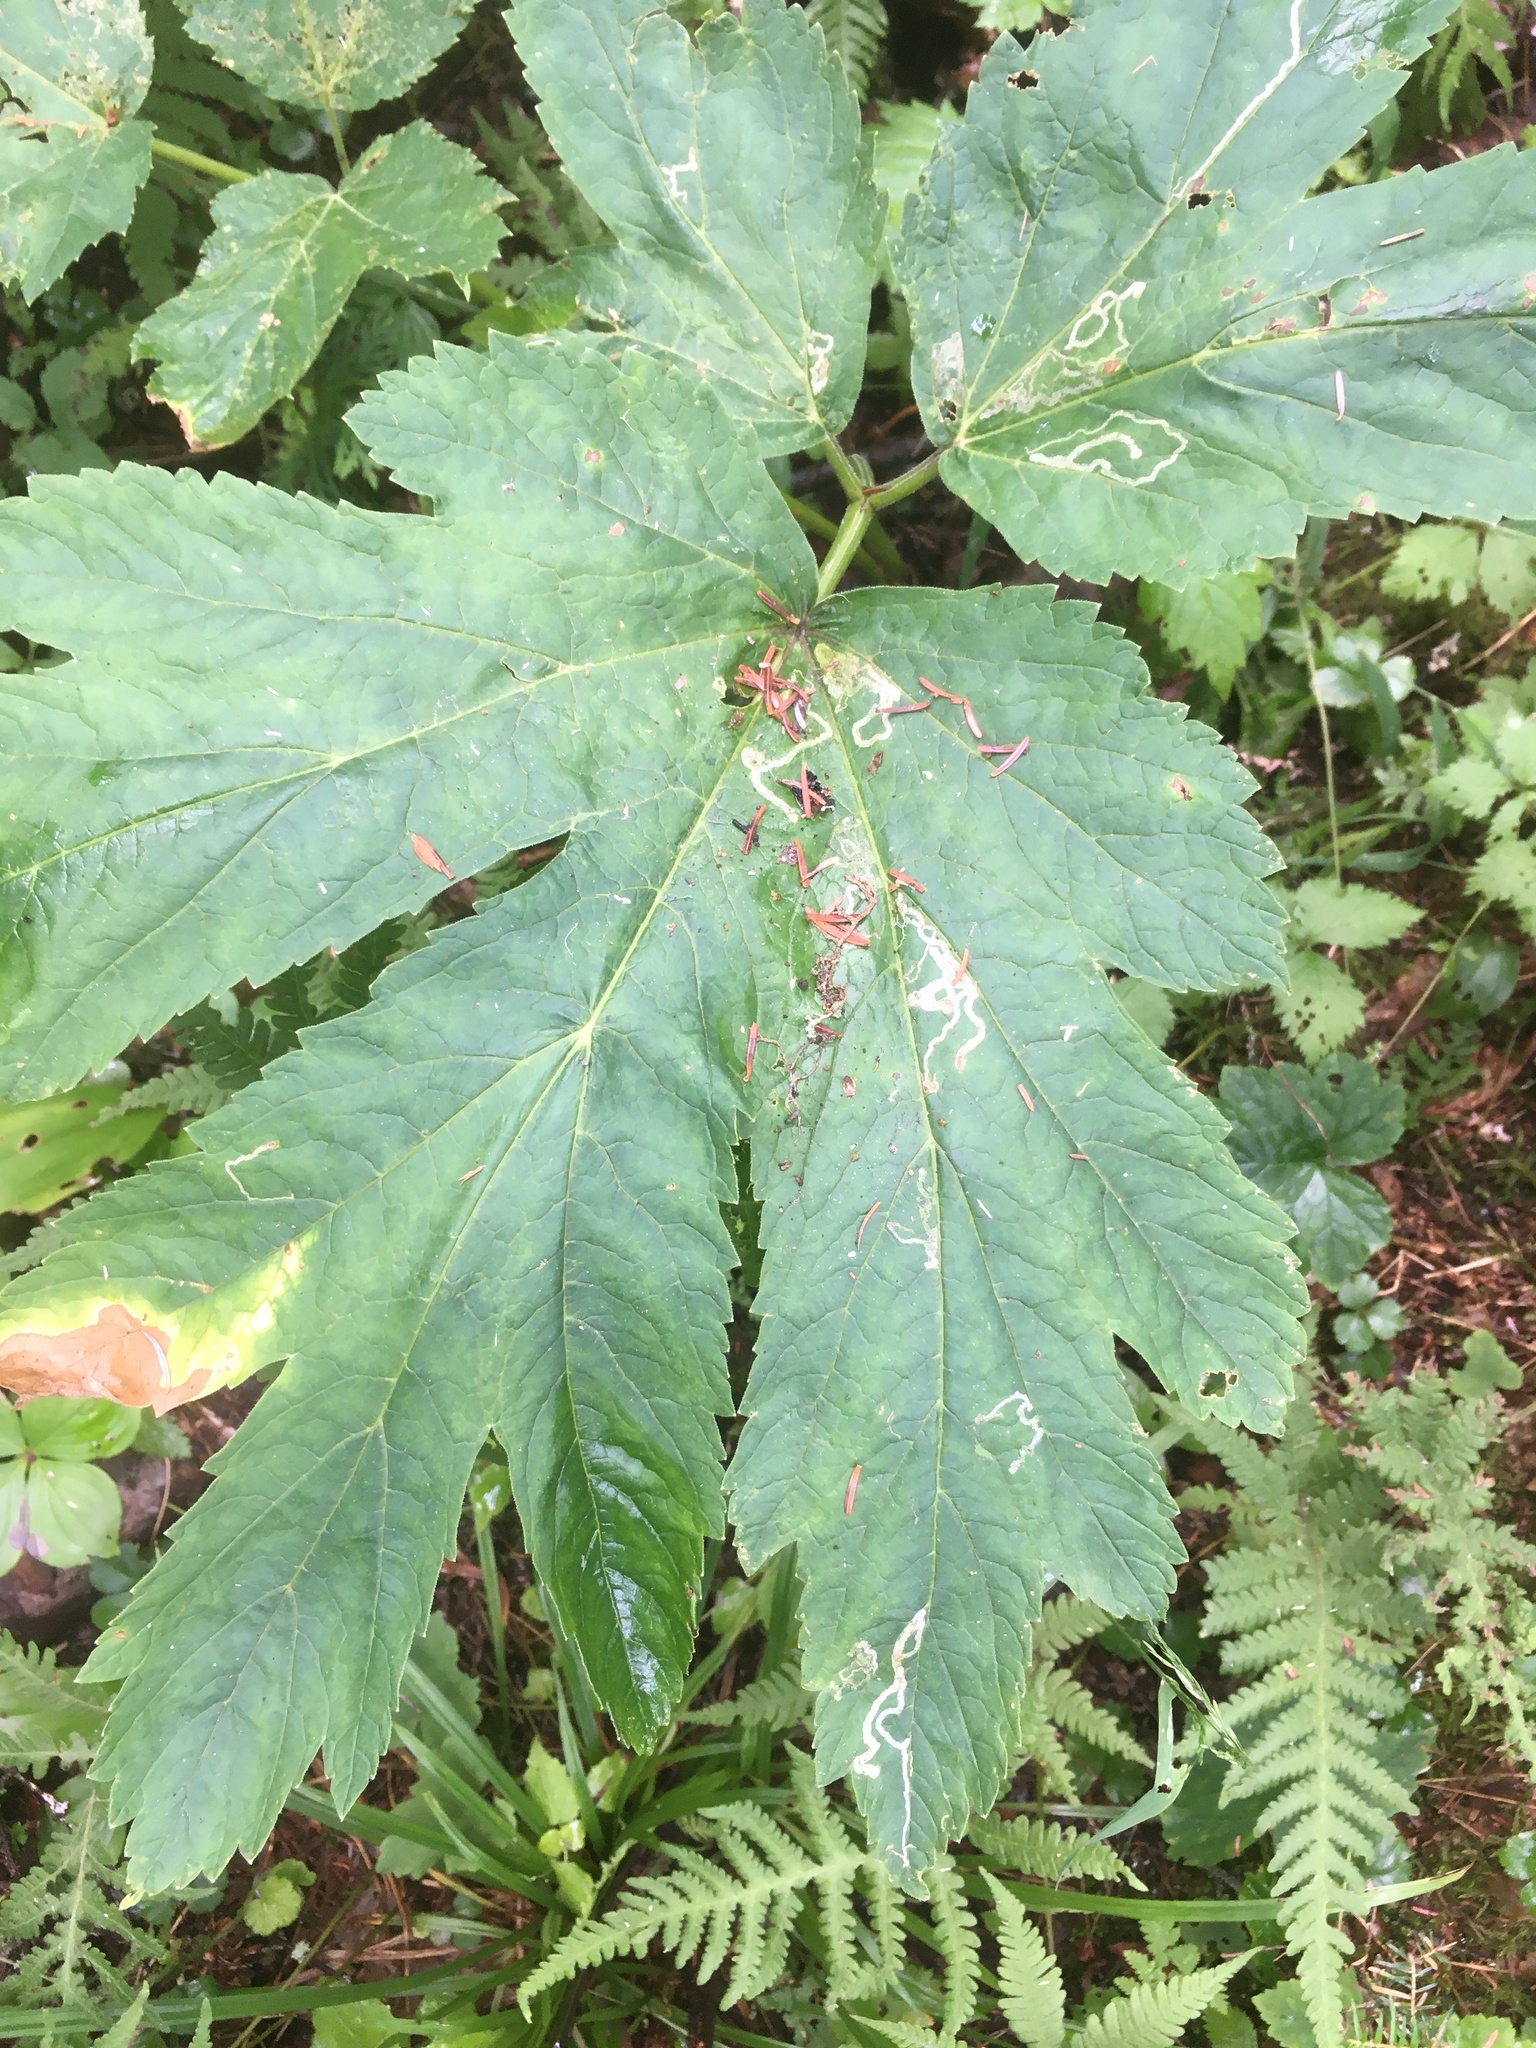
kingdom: Plantae
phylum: Tracheophyta
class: Magnoliopsida
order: Apiales
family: Apiaceae
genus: Heracleum
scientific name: Heracleum maximum
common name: American cow parsnip
